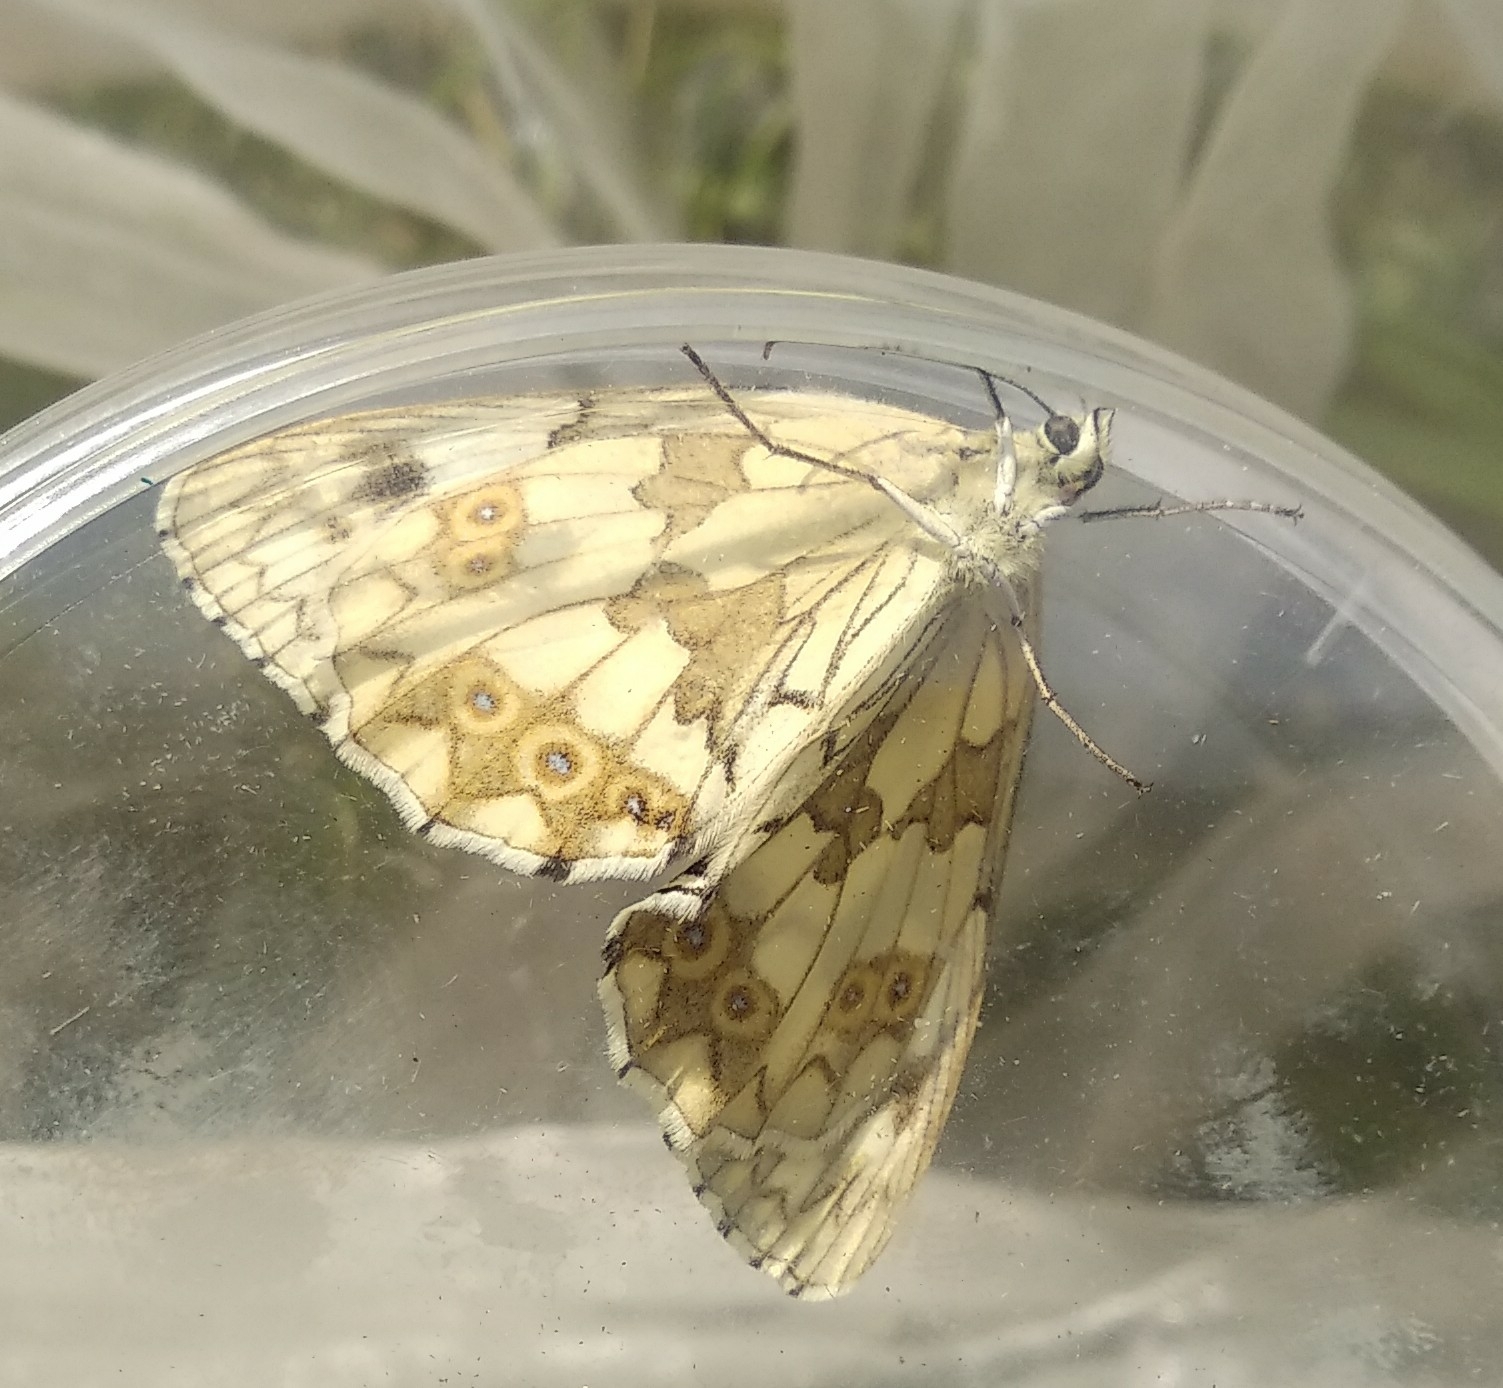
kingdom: Animalia
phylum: Arthropoda
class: Insecta
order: Lepidoptera
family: Nymphalidae
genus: Melanargia
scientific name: Melanargia lachesis
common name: Iberian marbled white
